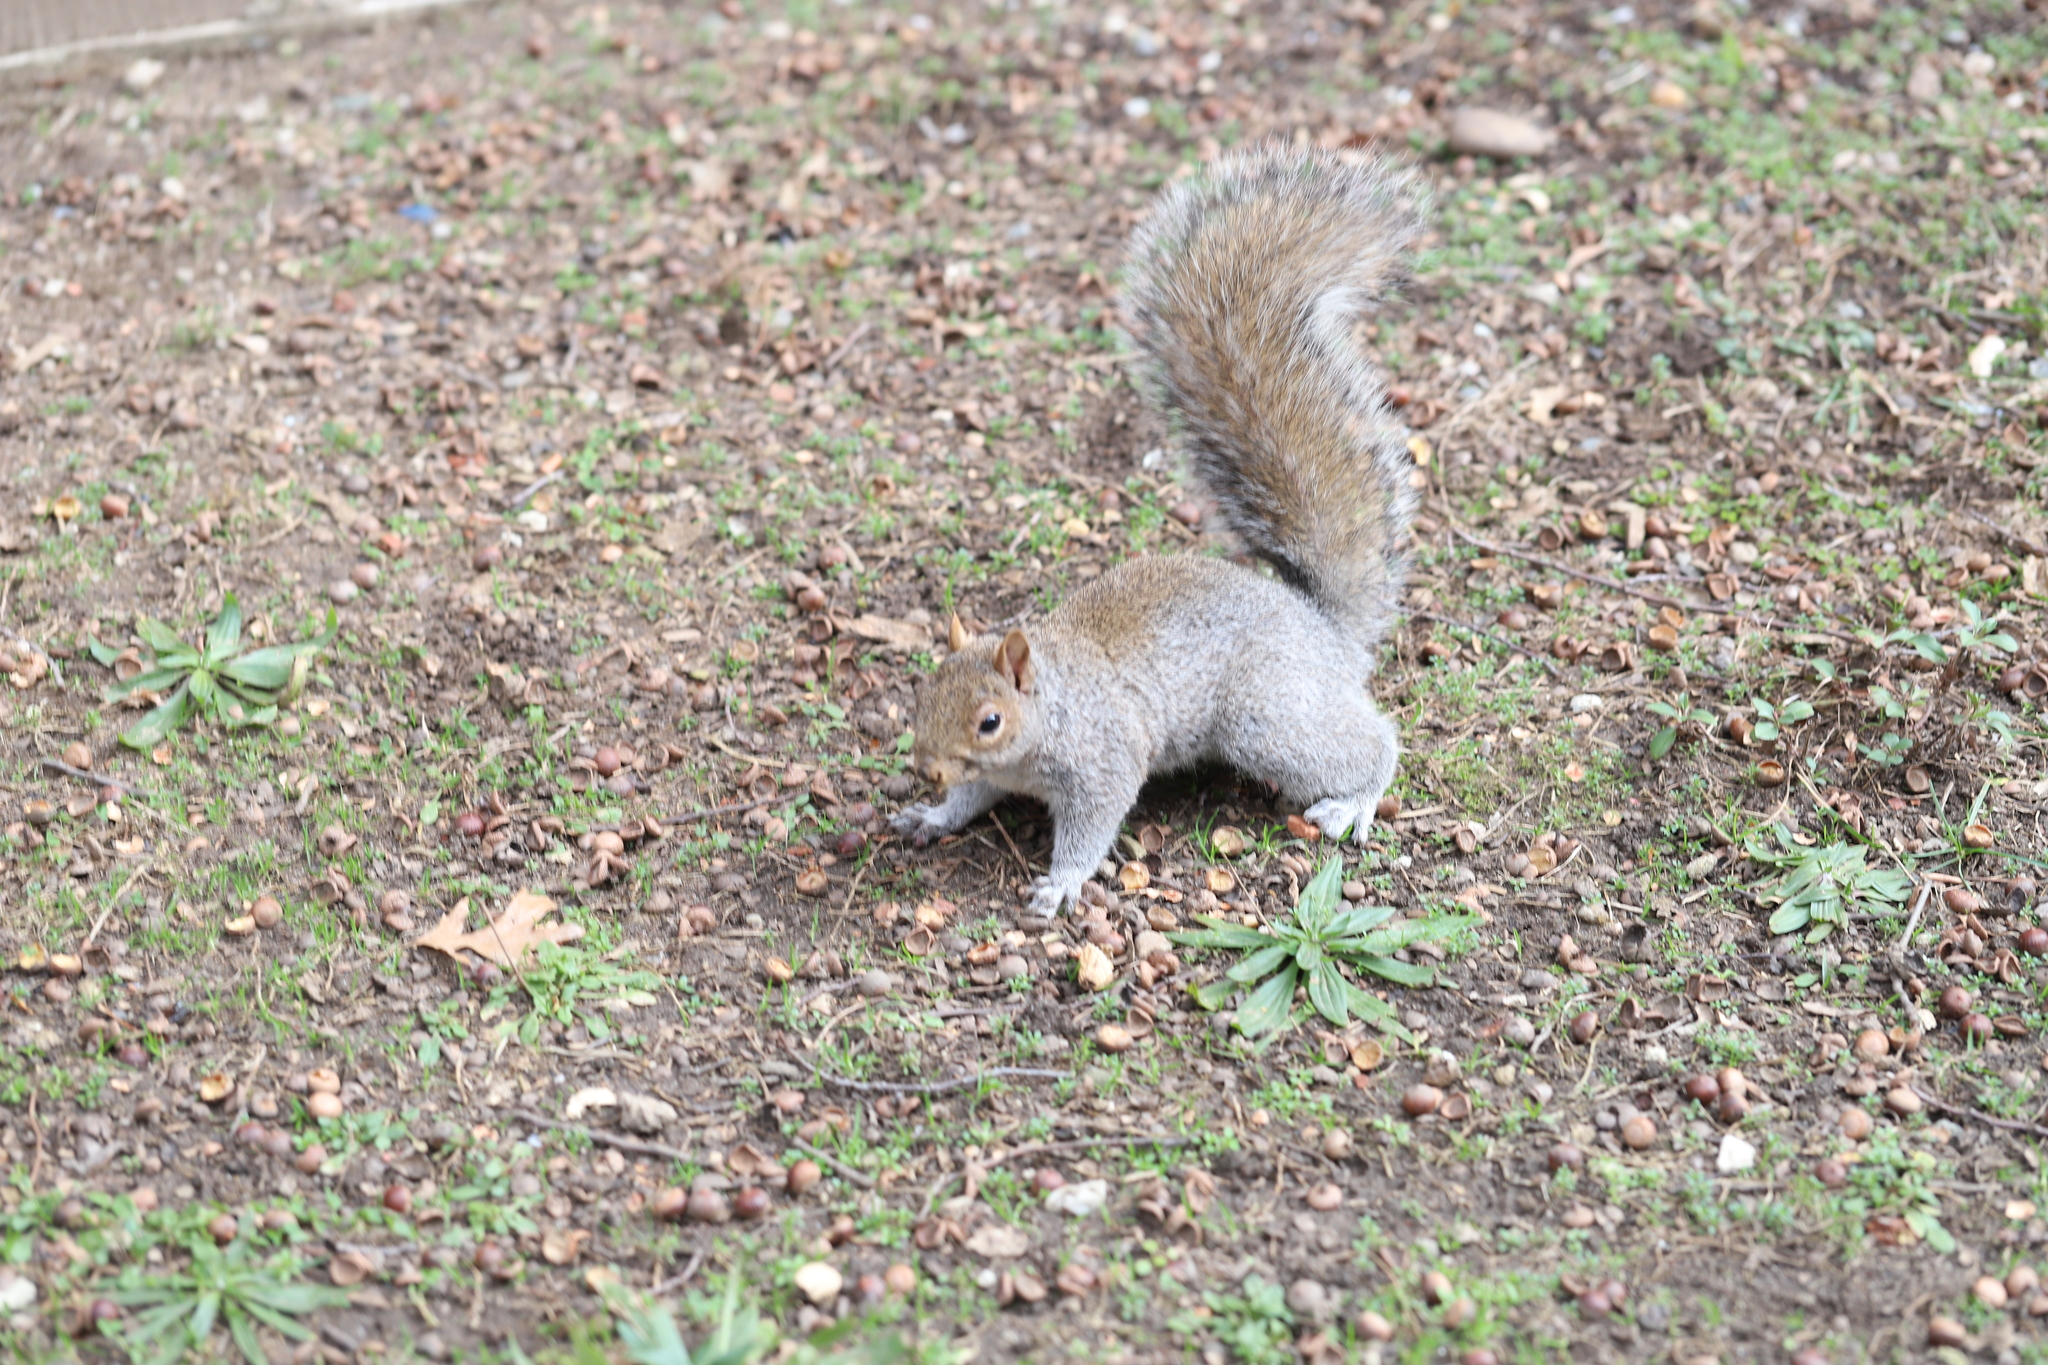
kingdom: Animalia
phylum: Chordata
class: Mammalia
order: Rodentia
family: Sciuridae
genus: Sciurus
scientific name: Sciurus carolinensis
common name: Eastern gray squirrel
